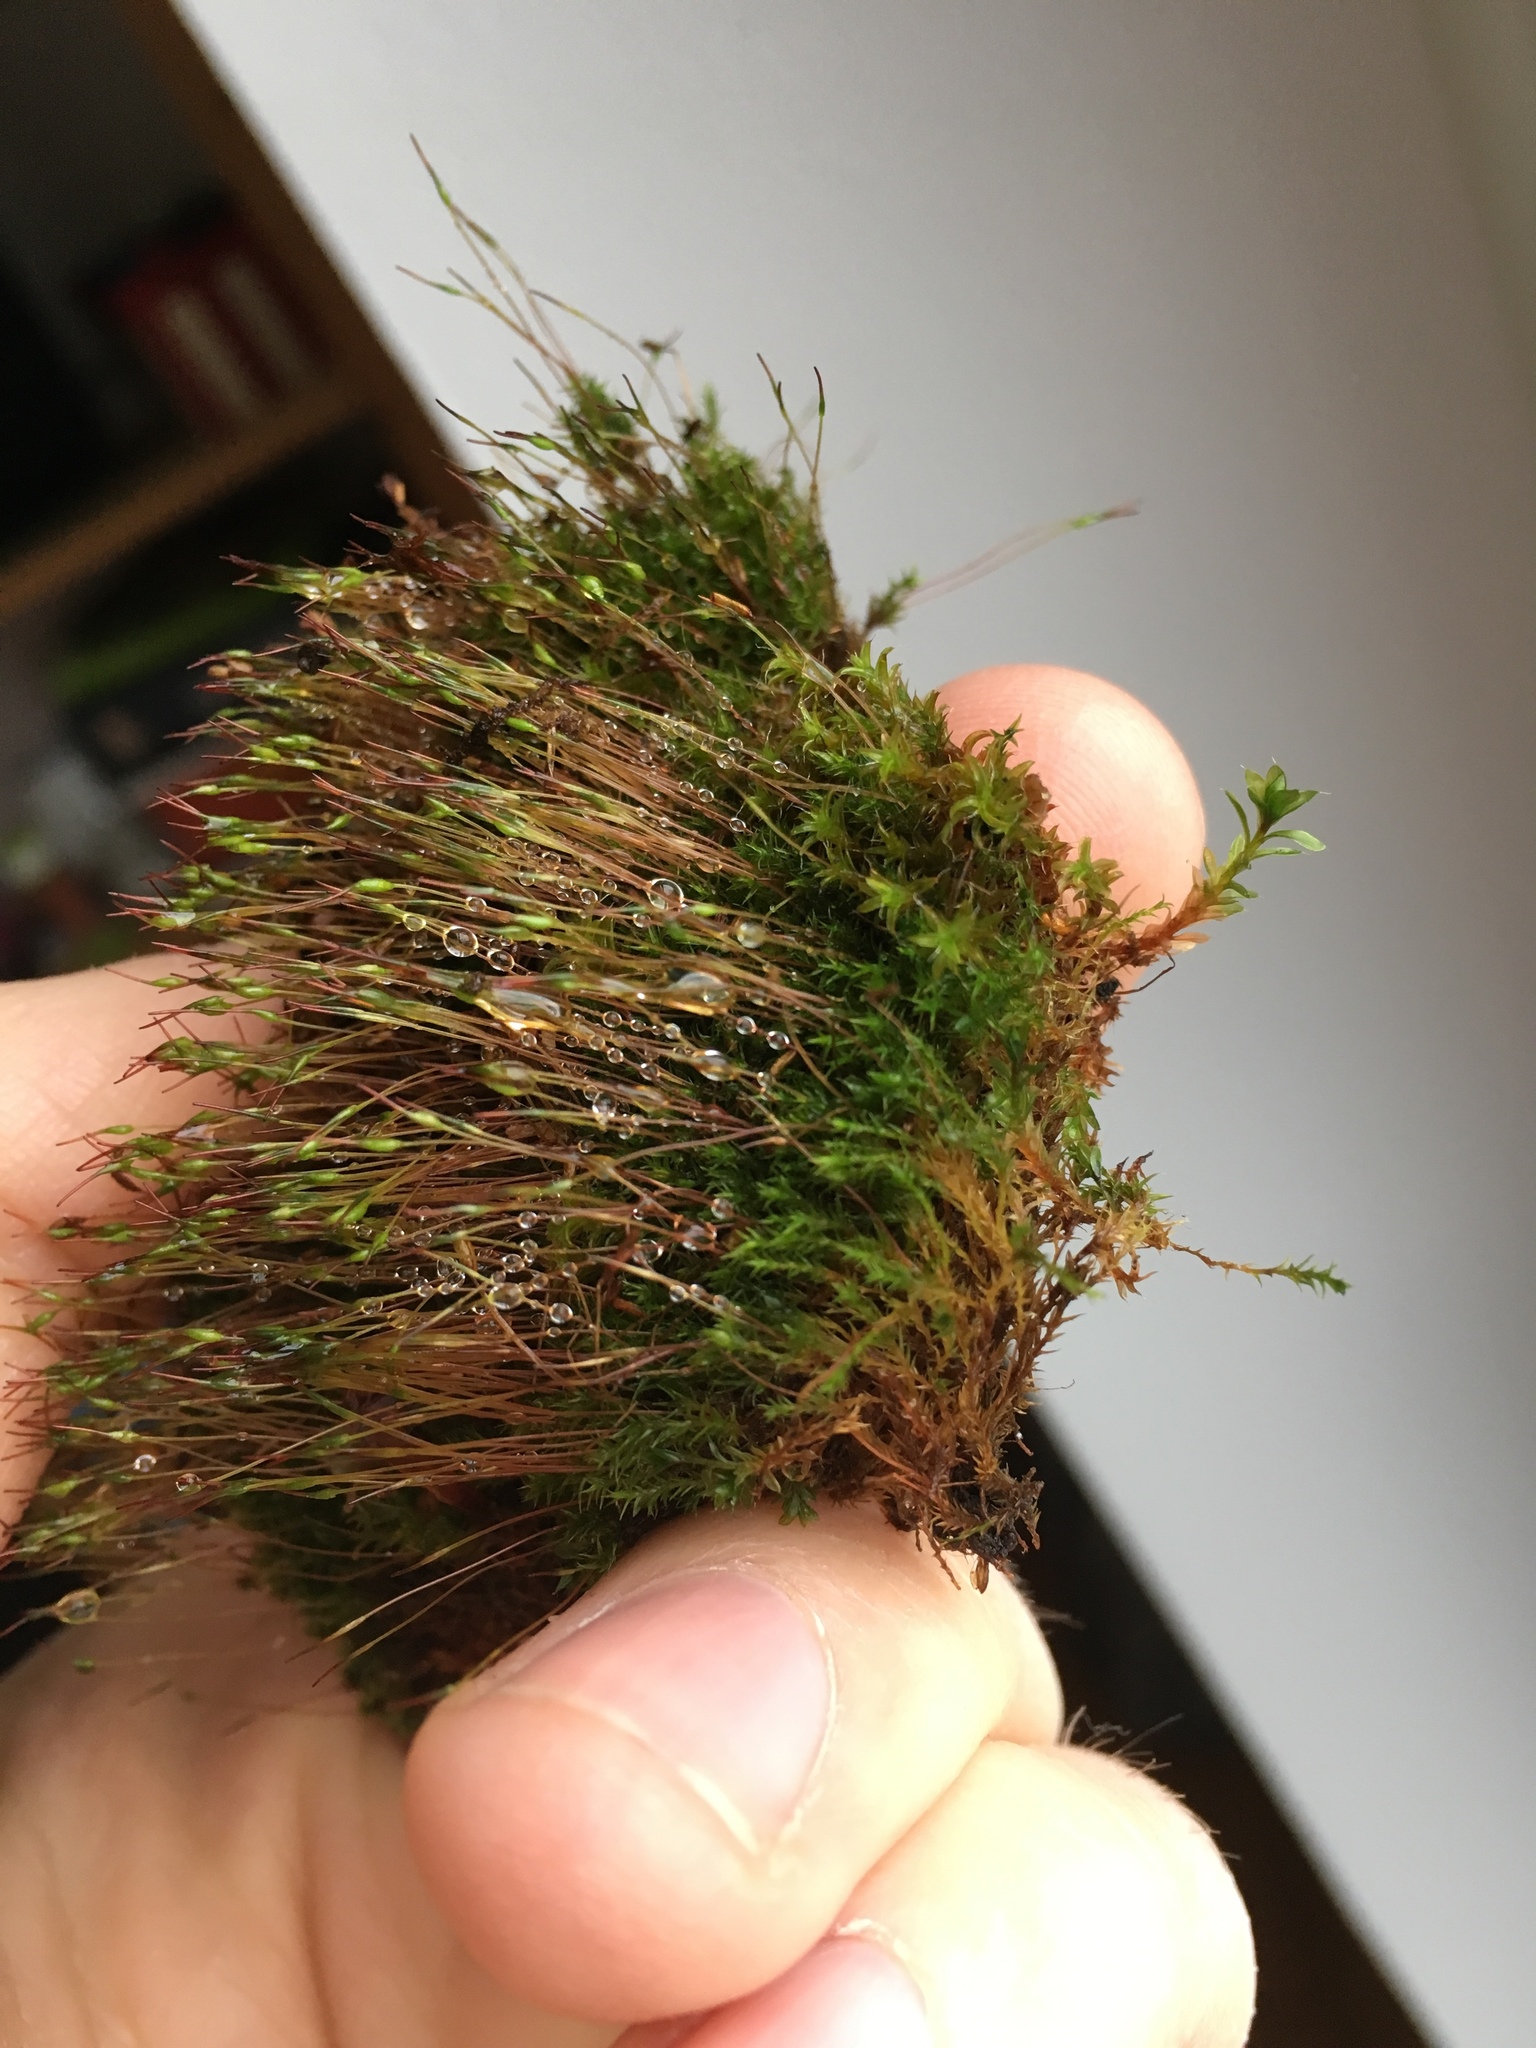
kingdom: Plantae
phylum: Bryophyta
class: Bryopsida
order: Dicranales
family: Ditrichaceae
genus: Ceratodon
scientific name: Ceratodon purpureus
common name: Redshank
